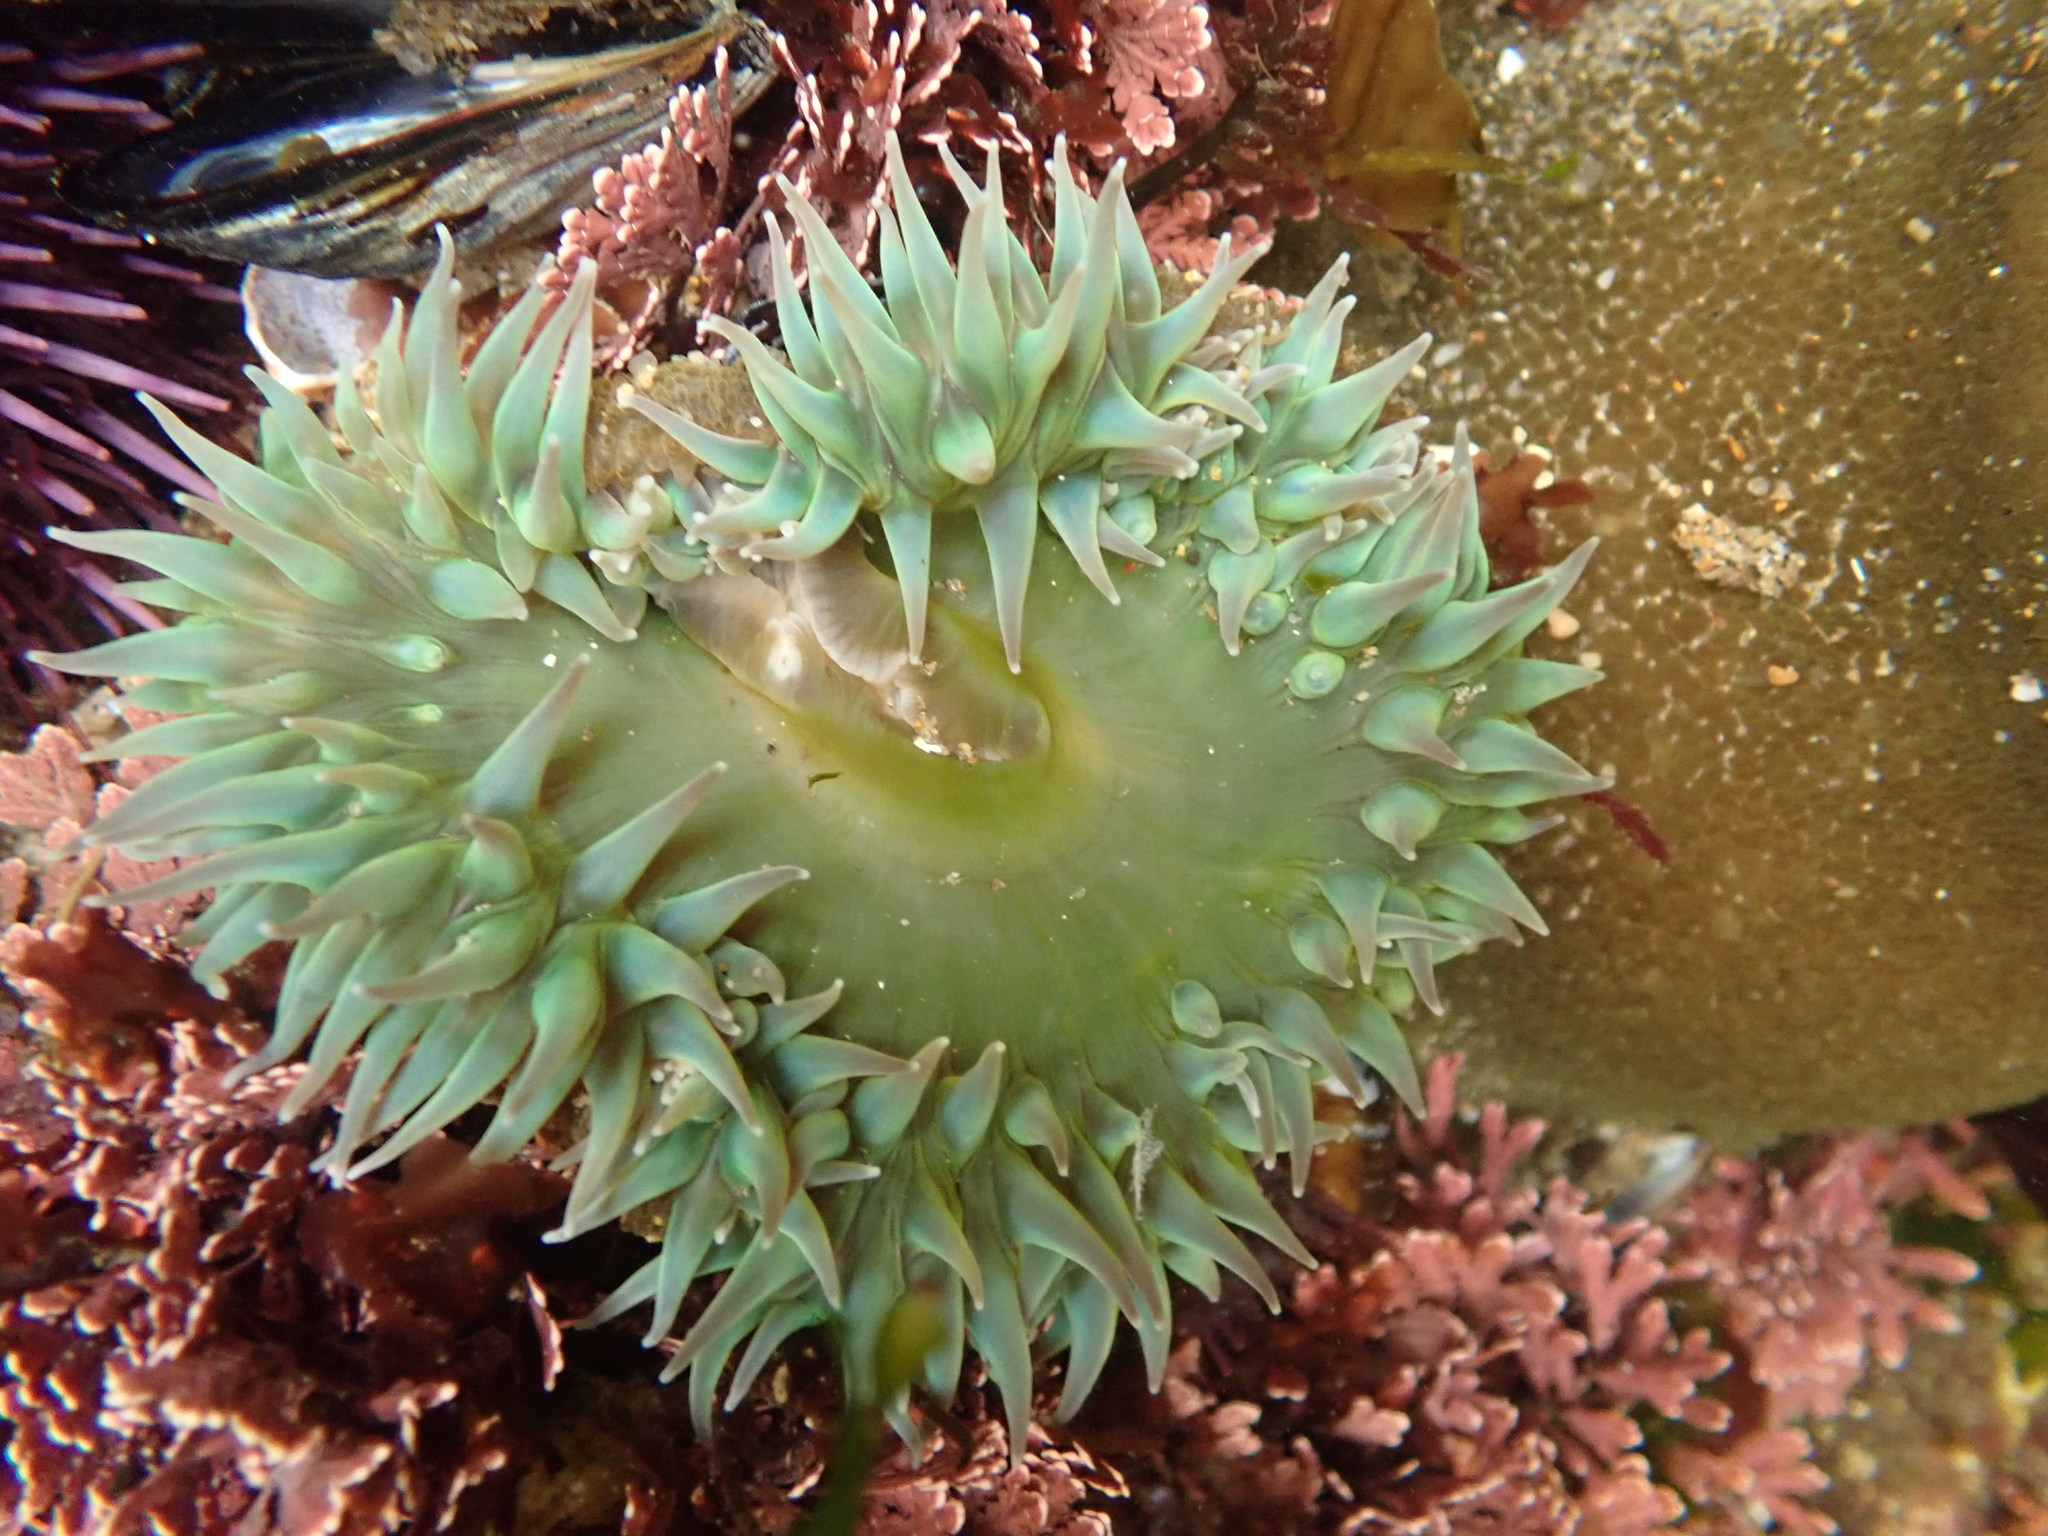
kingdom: Animalia
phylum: Cnidaria
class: Anthozoa
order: Actiniaria
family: Actiniidae
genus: Anthopleura
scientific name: Anthopleura xanthogrammica
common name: Giant green anemone
